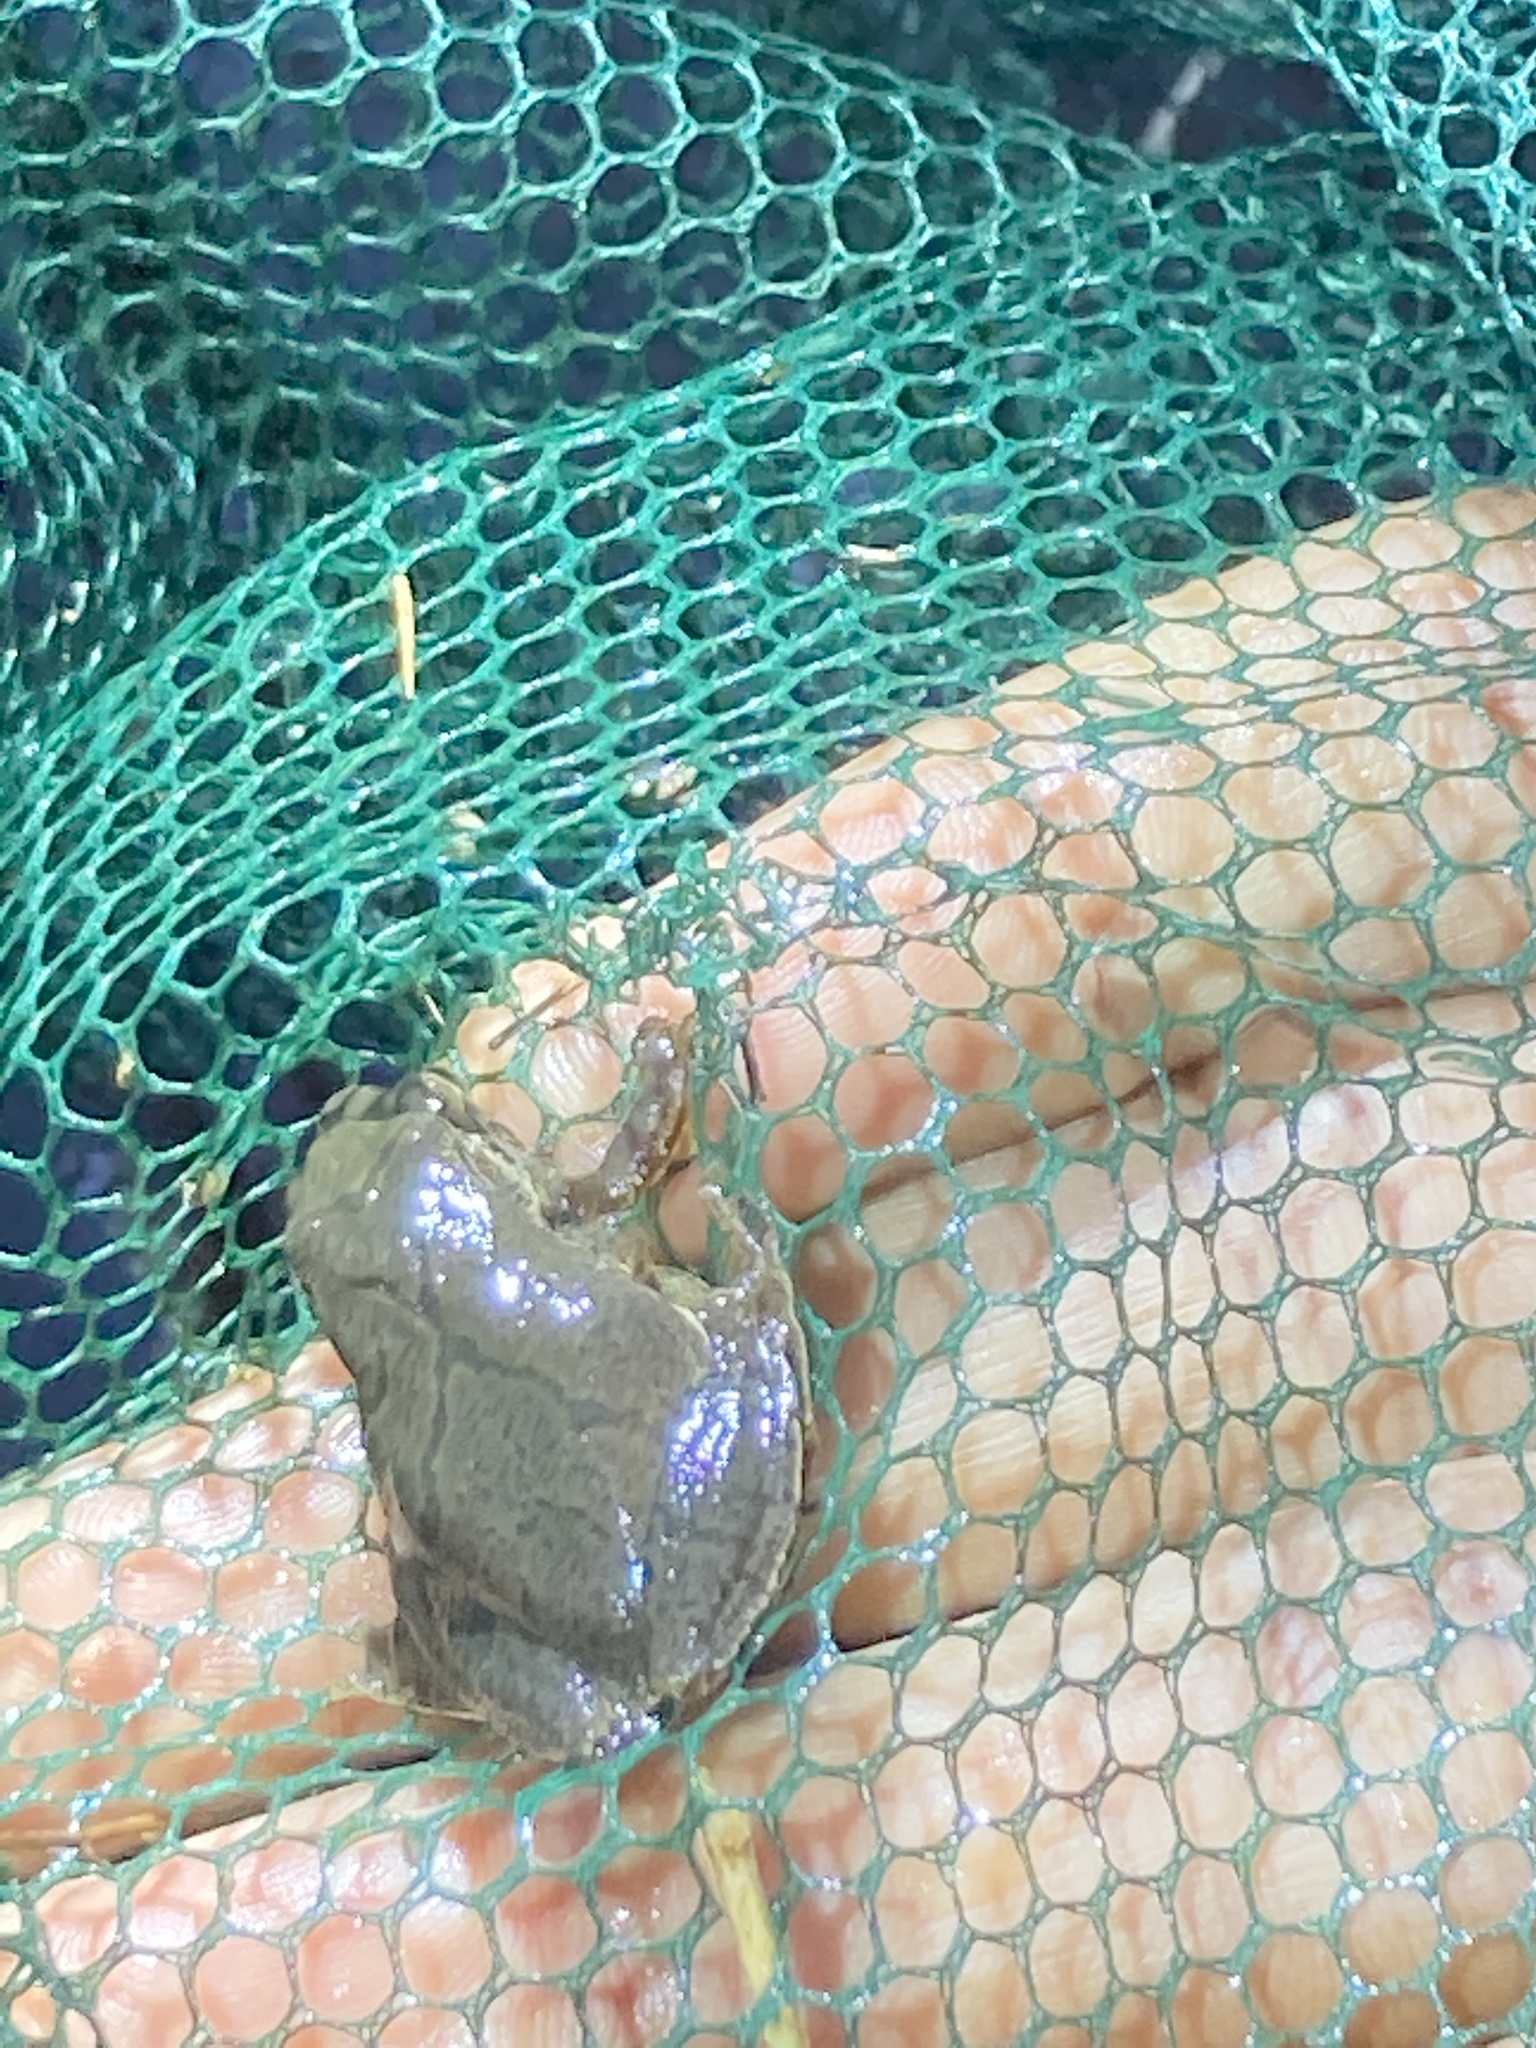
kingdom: Animalia
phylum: Chordata
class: Amphibia
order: Anura
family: Hylidae
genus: Pseudacris
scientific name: Pseudacris crucifer
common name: Spring peeper
